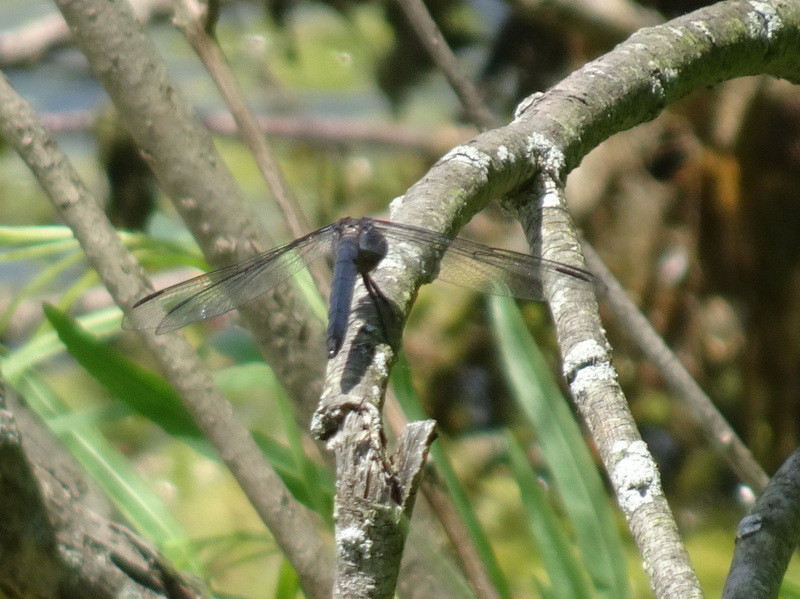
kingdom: Animalia
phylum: Arthropoda
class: Insecta
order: Odonata
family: Libellulidae
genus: Libellula
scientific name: Libellula incesta
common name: Slaty skimmer
